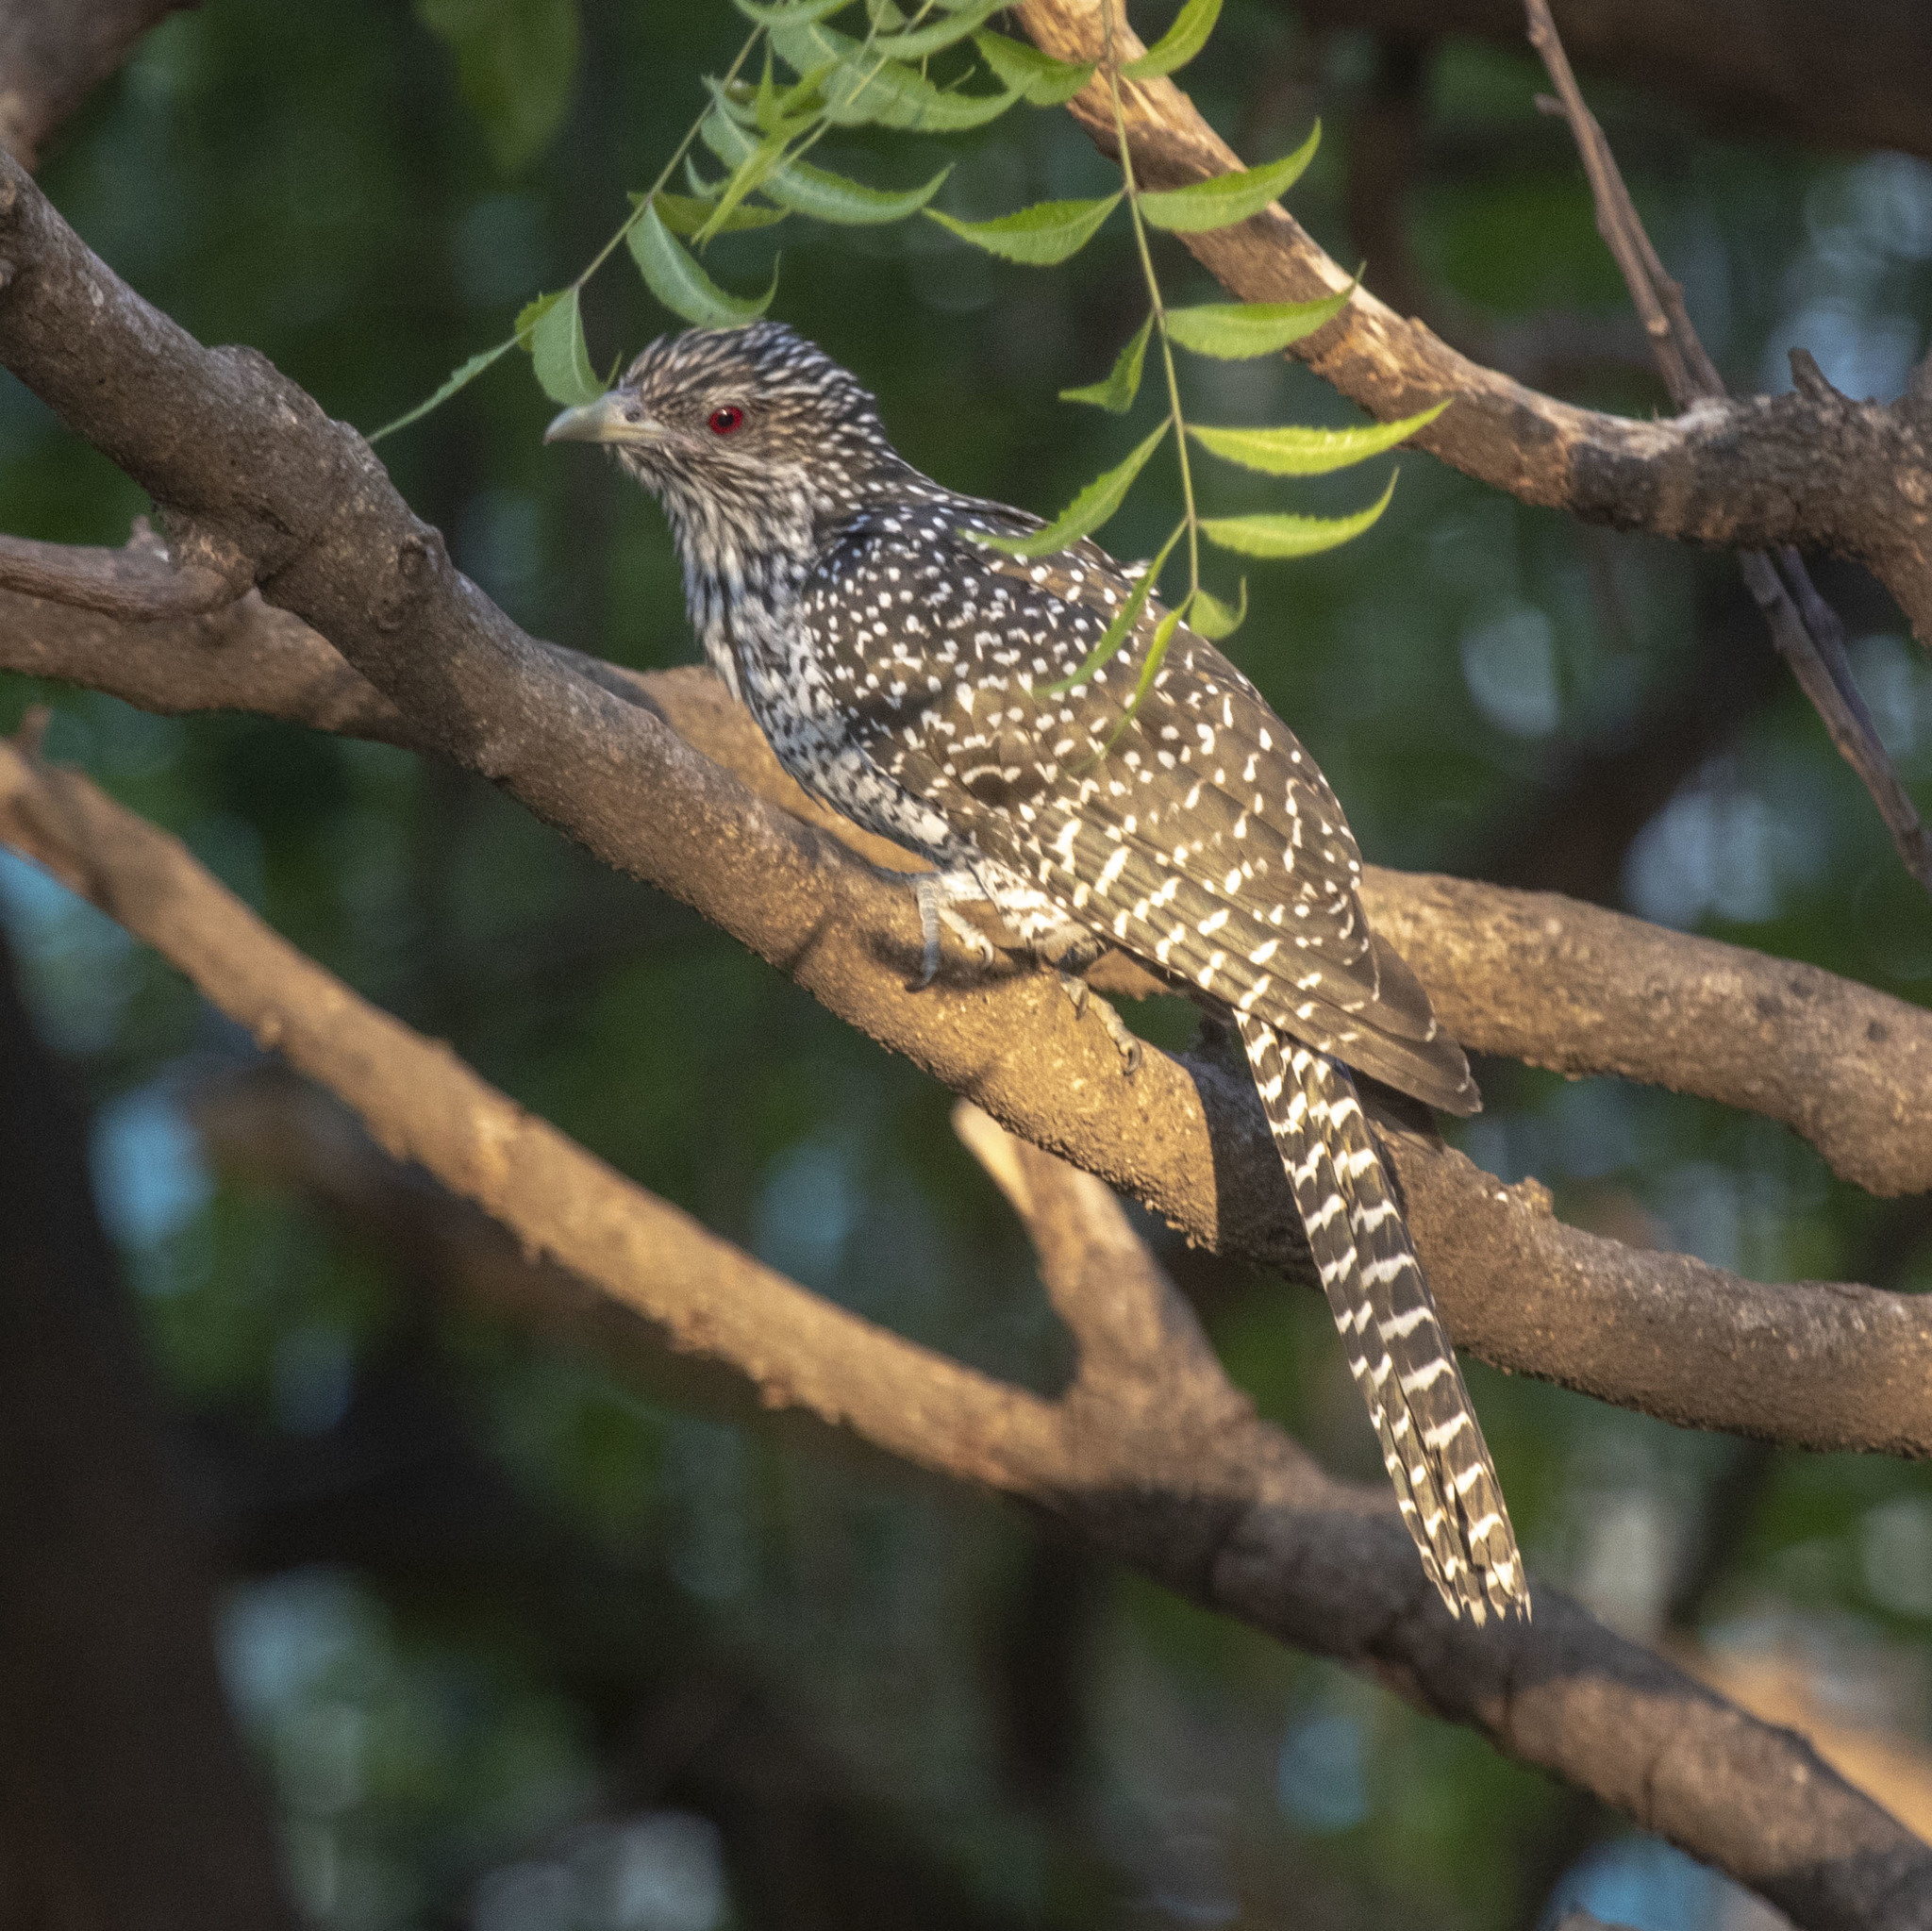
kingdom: Animalia
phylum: Chordata
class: Aves
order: Cuculiformes
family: Cuculidae
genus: Eudynamys
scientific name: Eudynamys scolopaceus
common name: Asian koel
